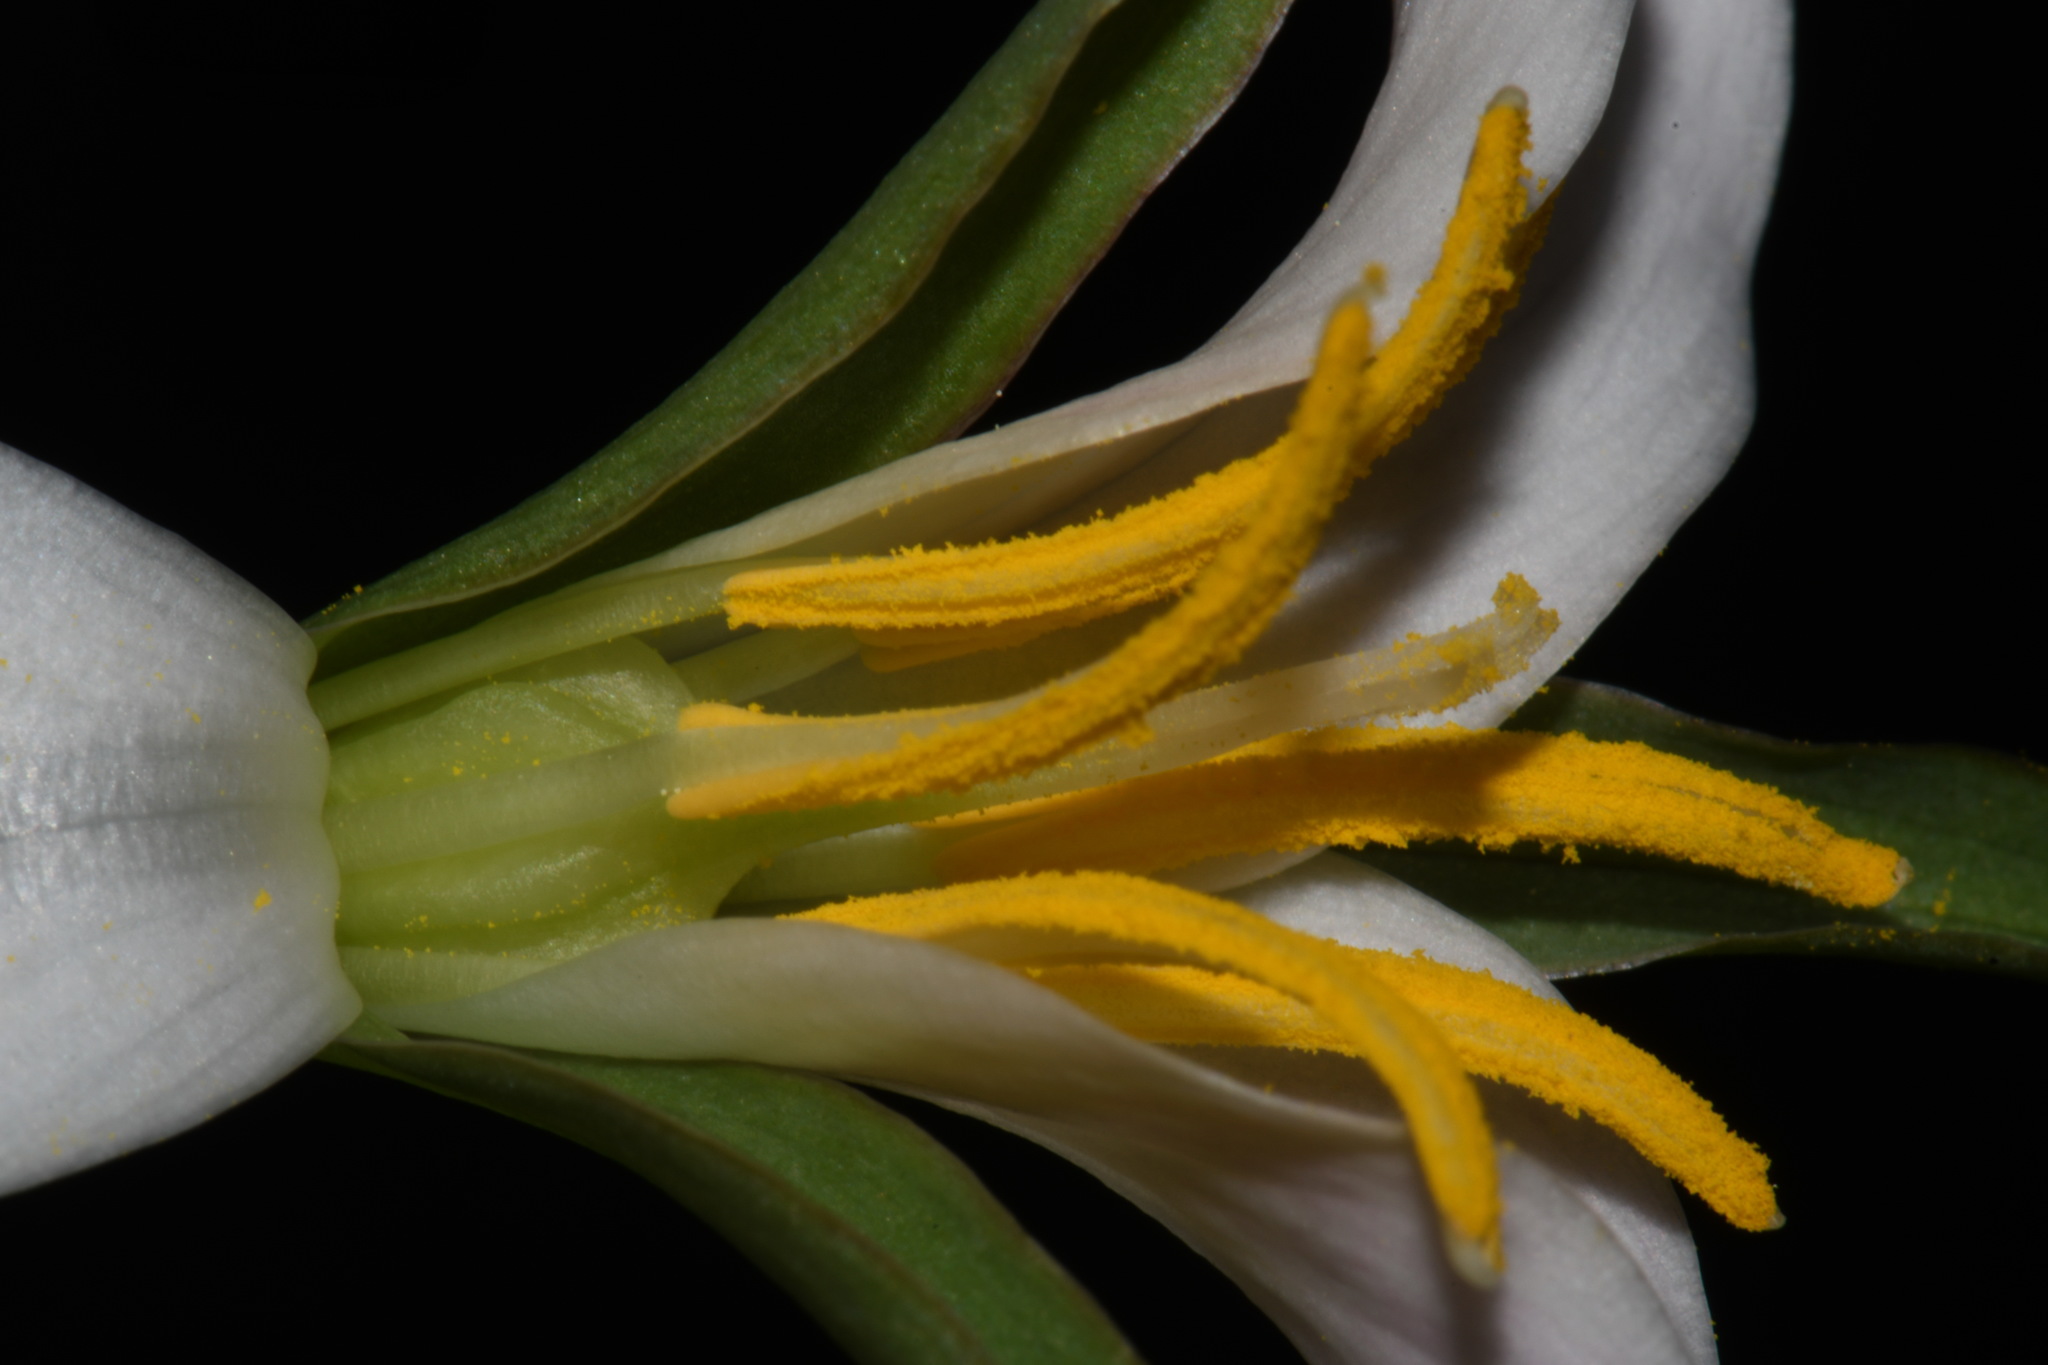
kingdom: Plantae
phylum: Tracheophyta
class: Liliopsida
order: Liliales
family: Melanthiaceae
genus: Trillium
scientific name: Trillium catesbaei
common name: Bashful trillium
